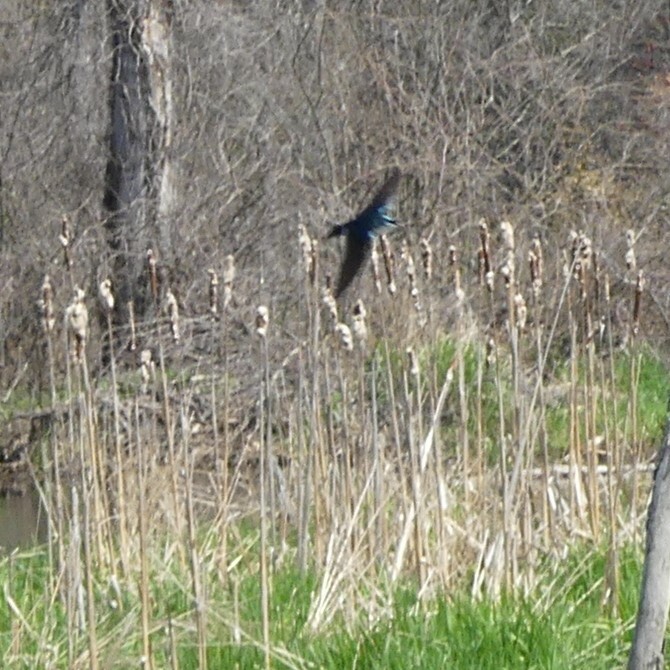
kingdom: Animalia
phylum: Chordata
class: Aves
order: Passeriformes
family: Hirundinidae
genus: Tachycineta
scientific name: Tachycineta bicolor
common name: Tree swallow
